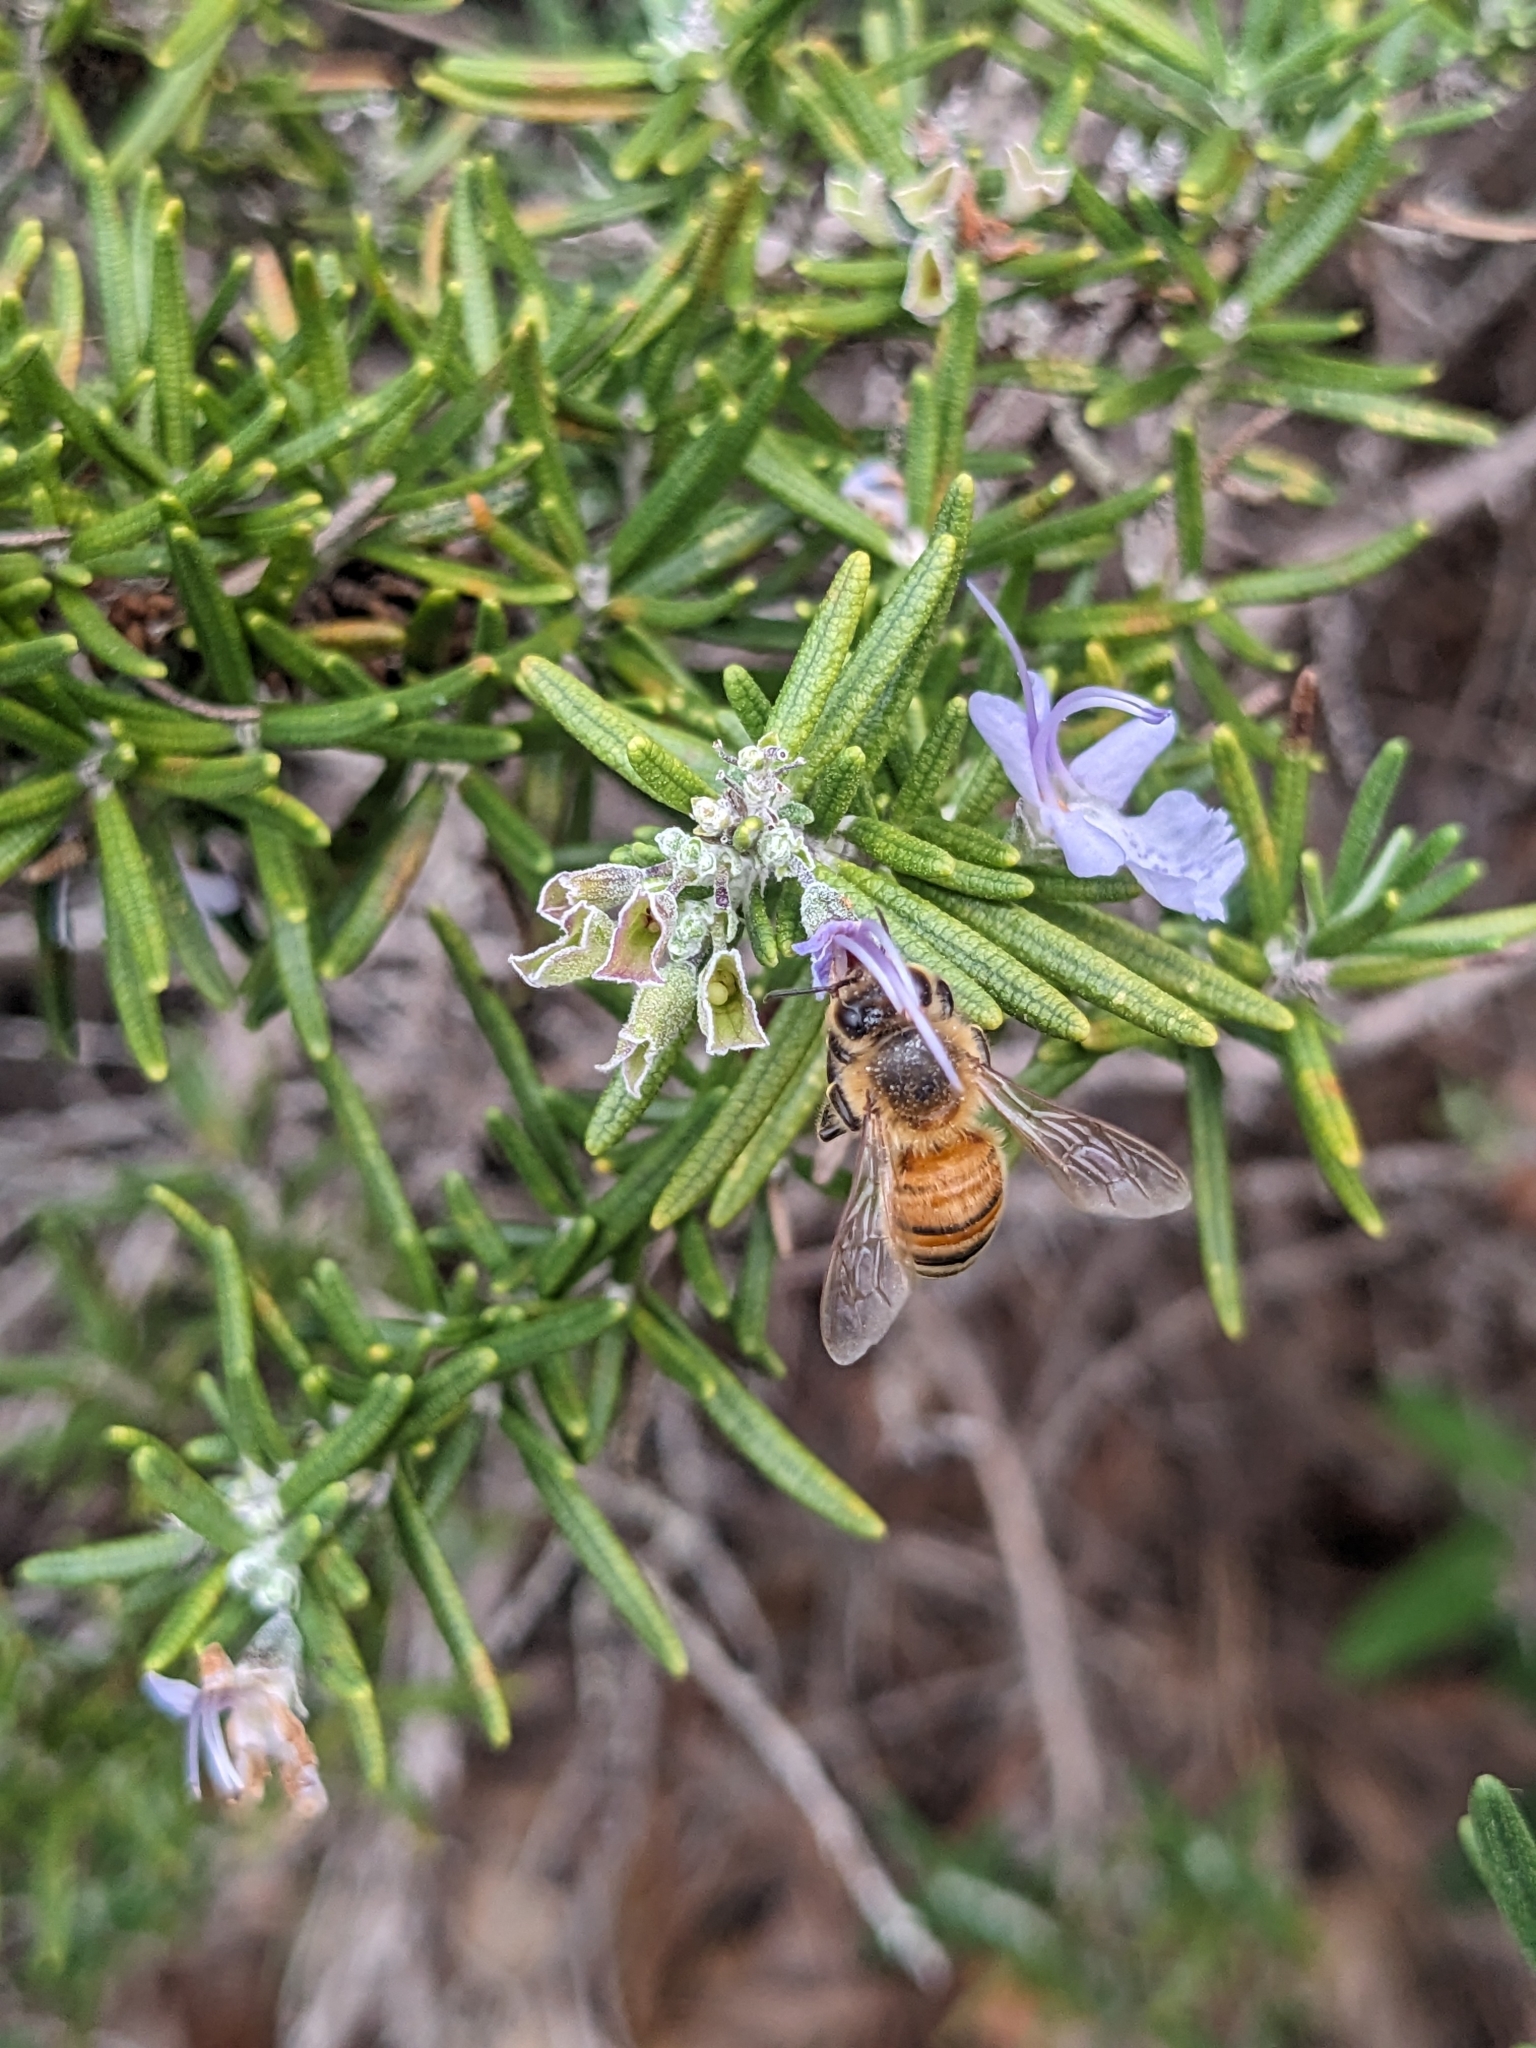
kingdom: Animalia
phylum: Arthropoda
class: Insecta
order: Hymenoptera
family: Apidae
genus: Apis
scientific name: Apis mellifera
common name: Honey bee
